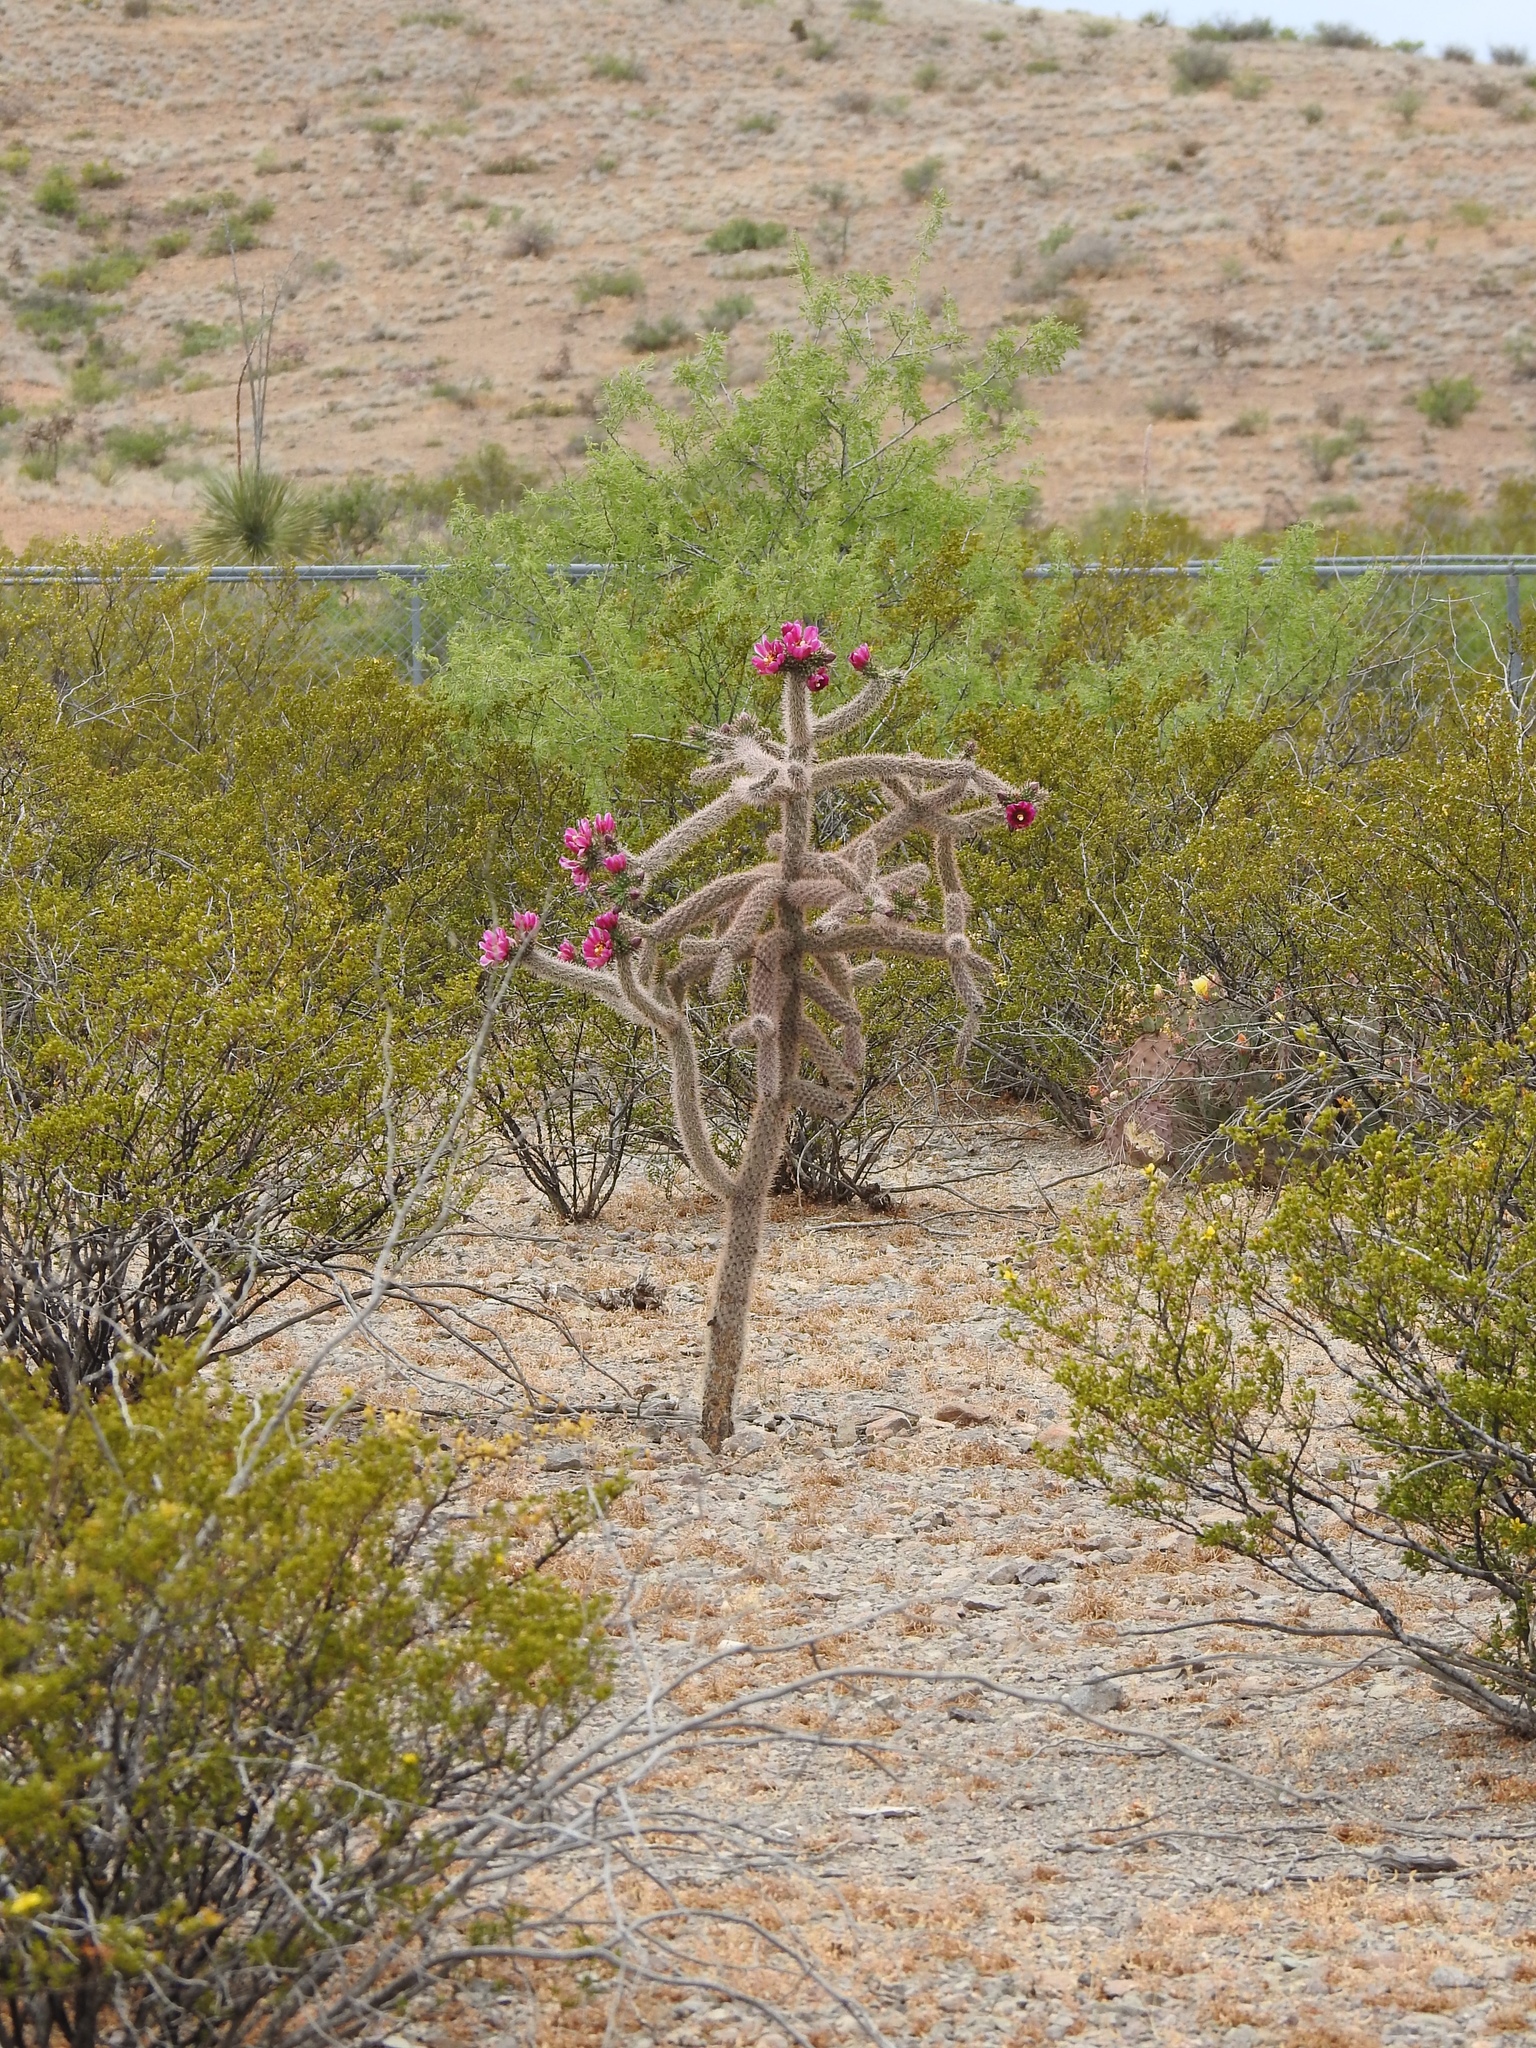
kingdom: Plantae
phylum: Tracheophyta
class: Magnoliopsida
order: Caryophyllales
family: Cactaceae
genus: Cylindropuntia
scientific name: Cylindropuntia imbricata
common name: Candelabrum cactus
